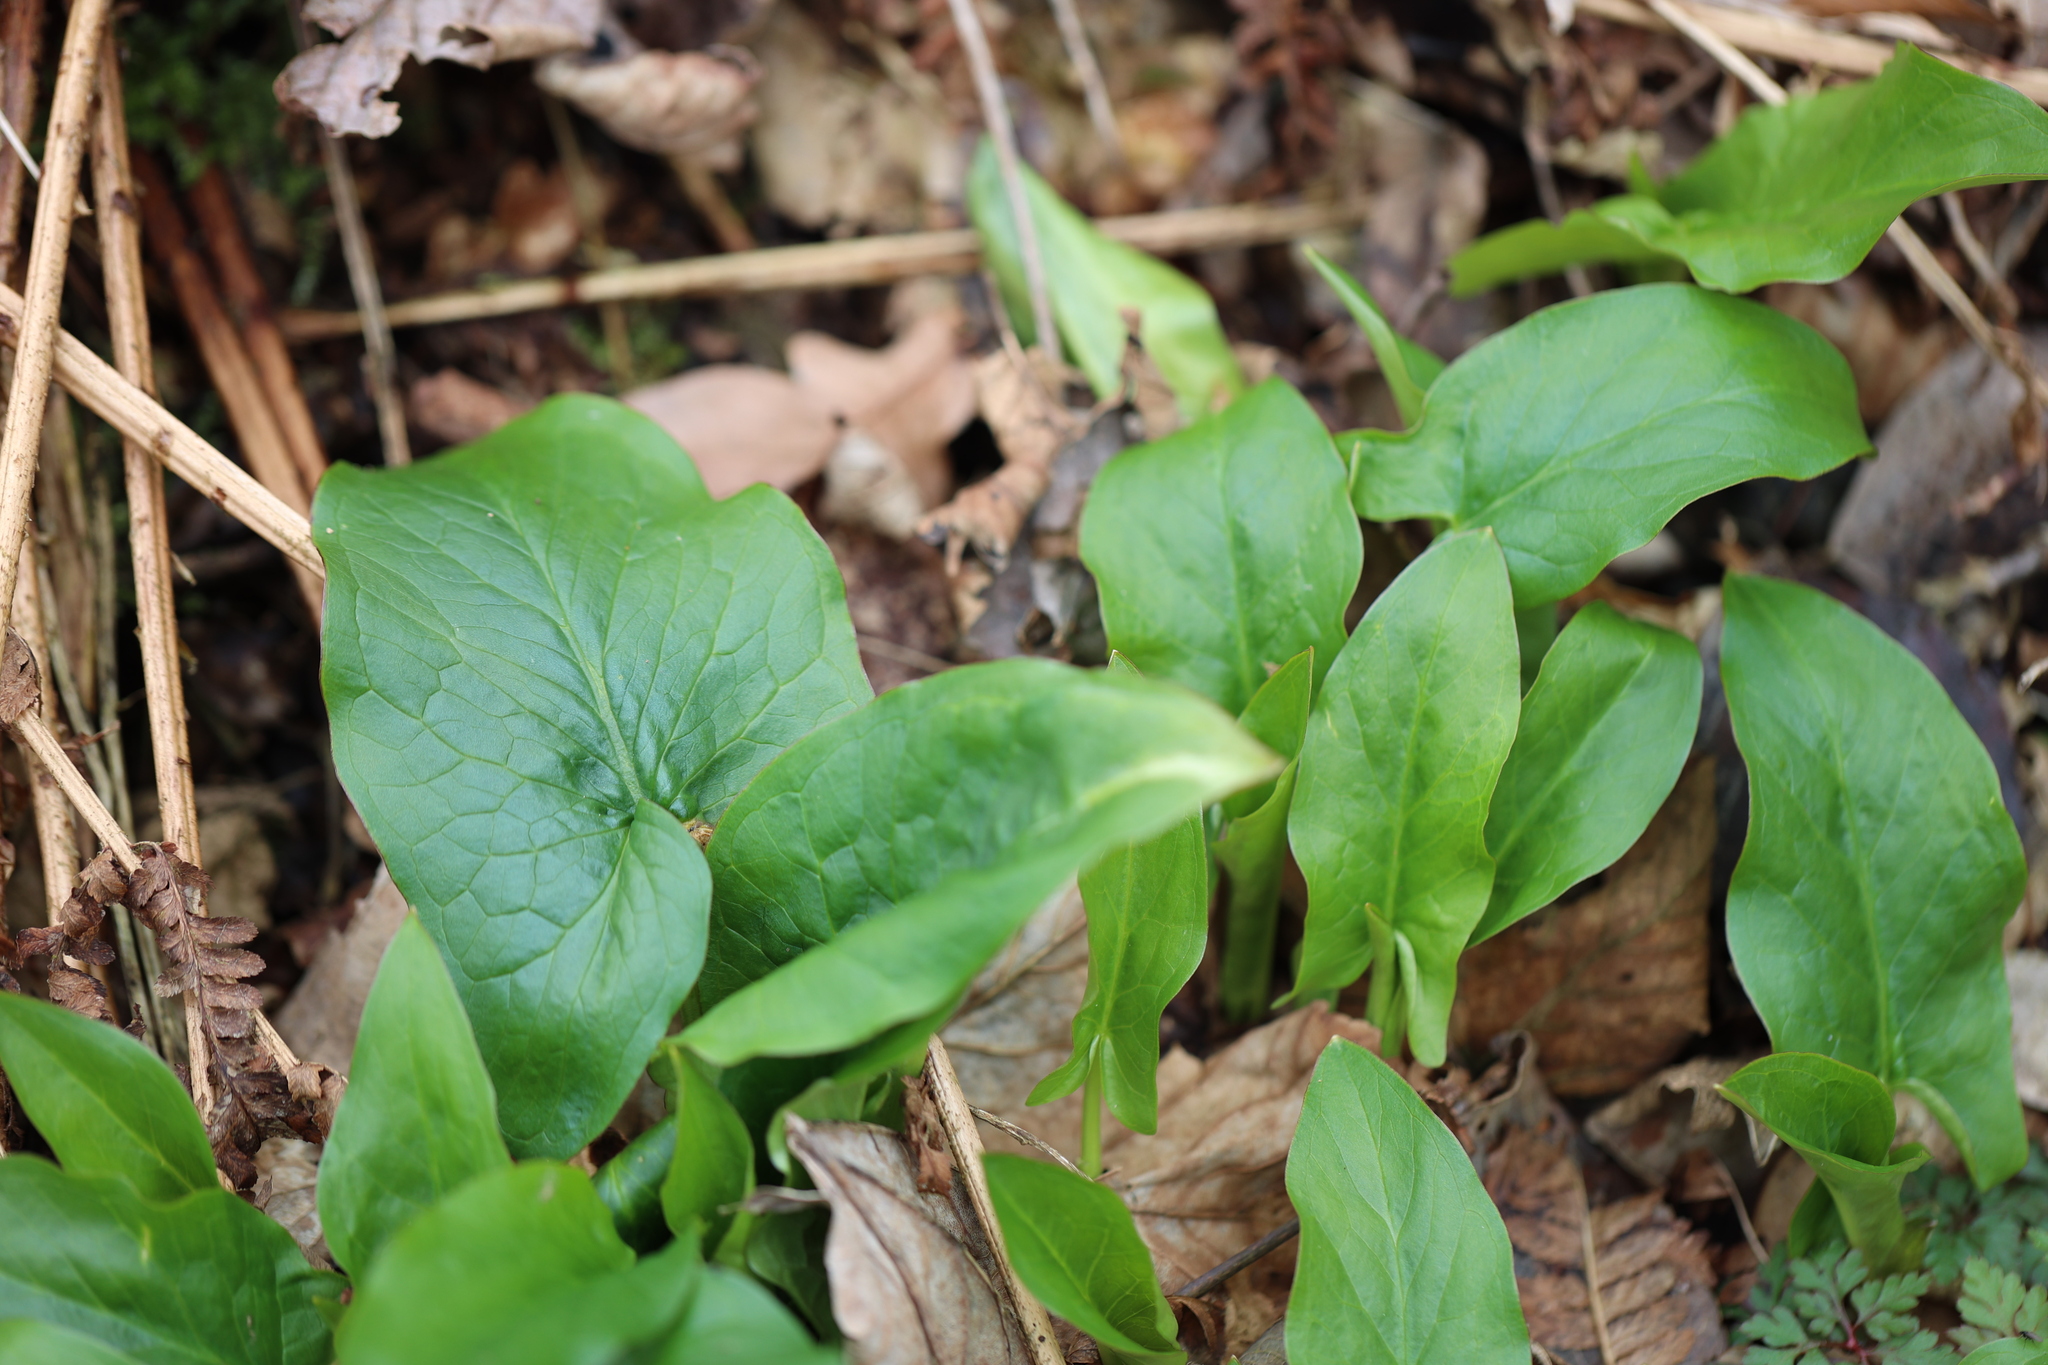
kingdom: Plantae
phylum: Tracheophyta
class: Liliopsida
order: Alismatales
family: Araceae
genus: Arum
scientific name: Arum maculatum
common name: Lords-and-ladies
